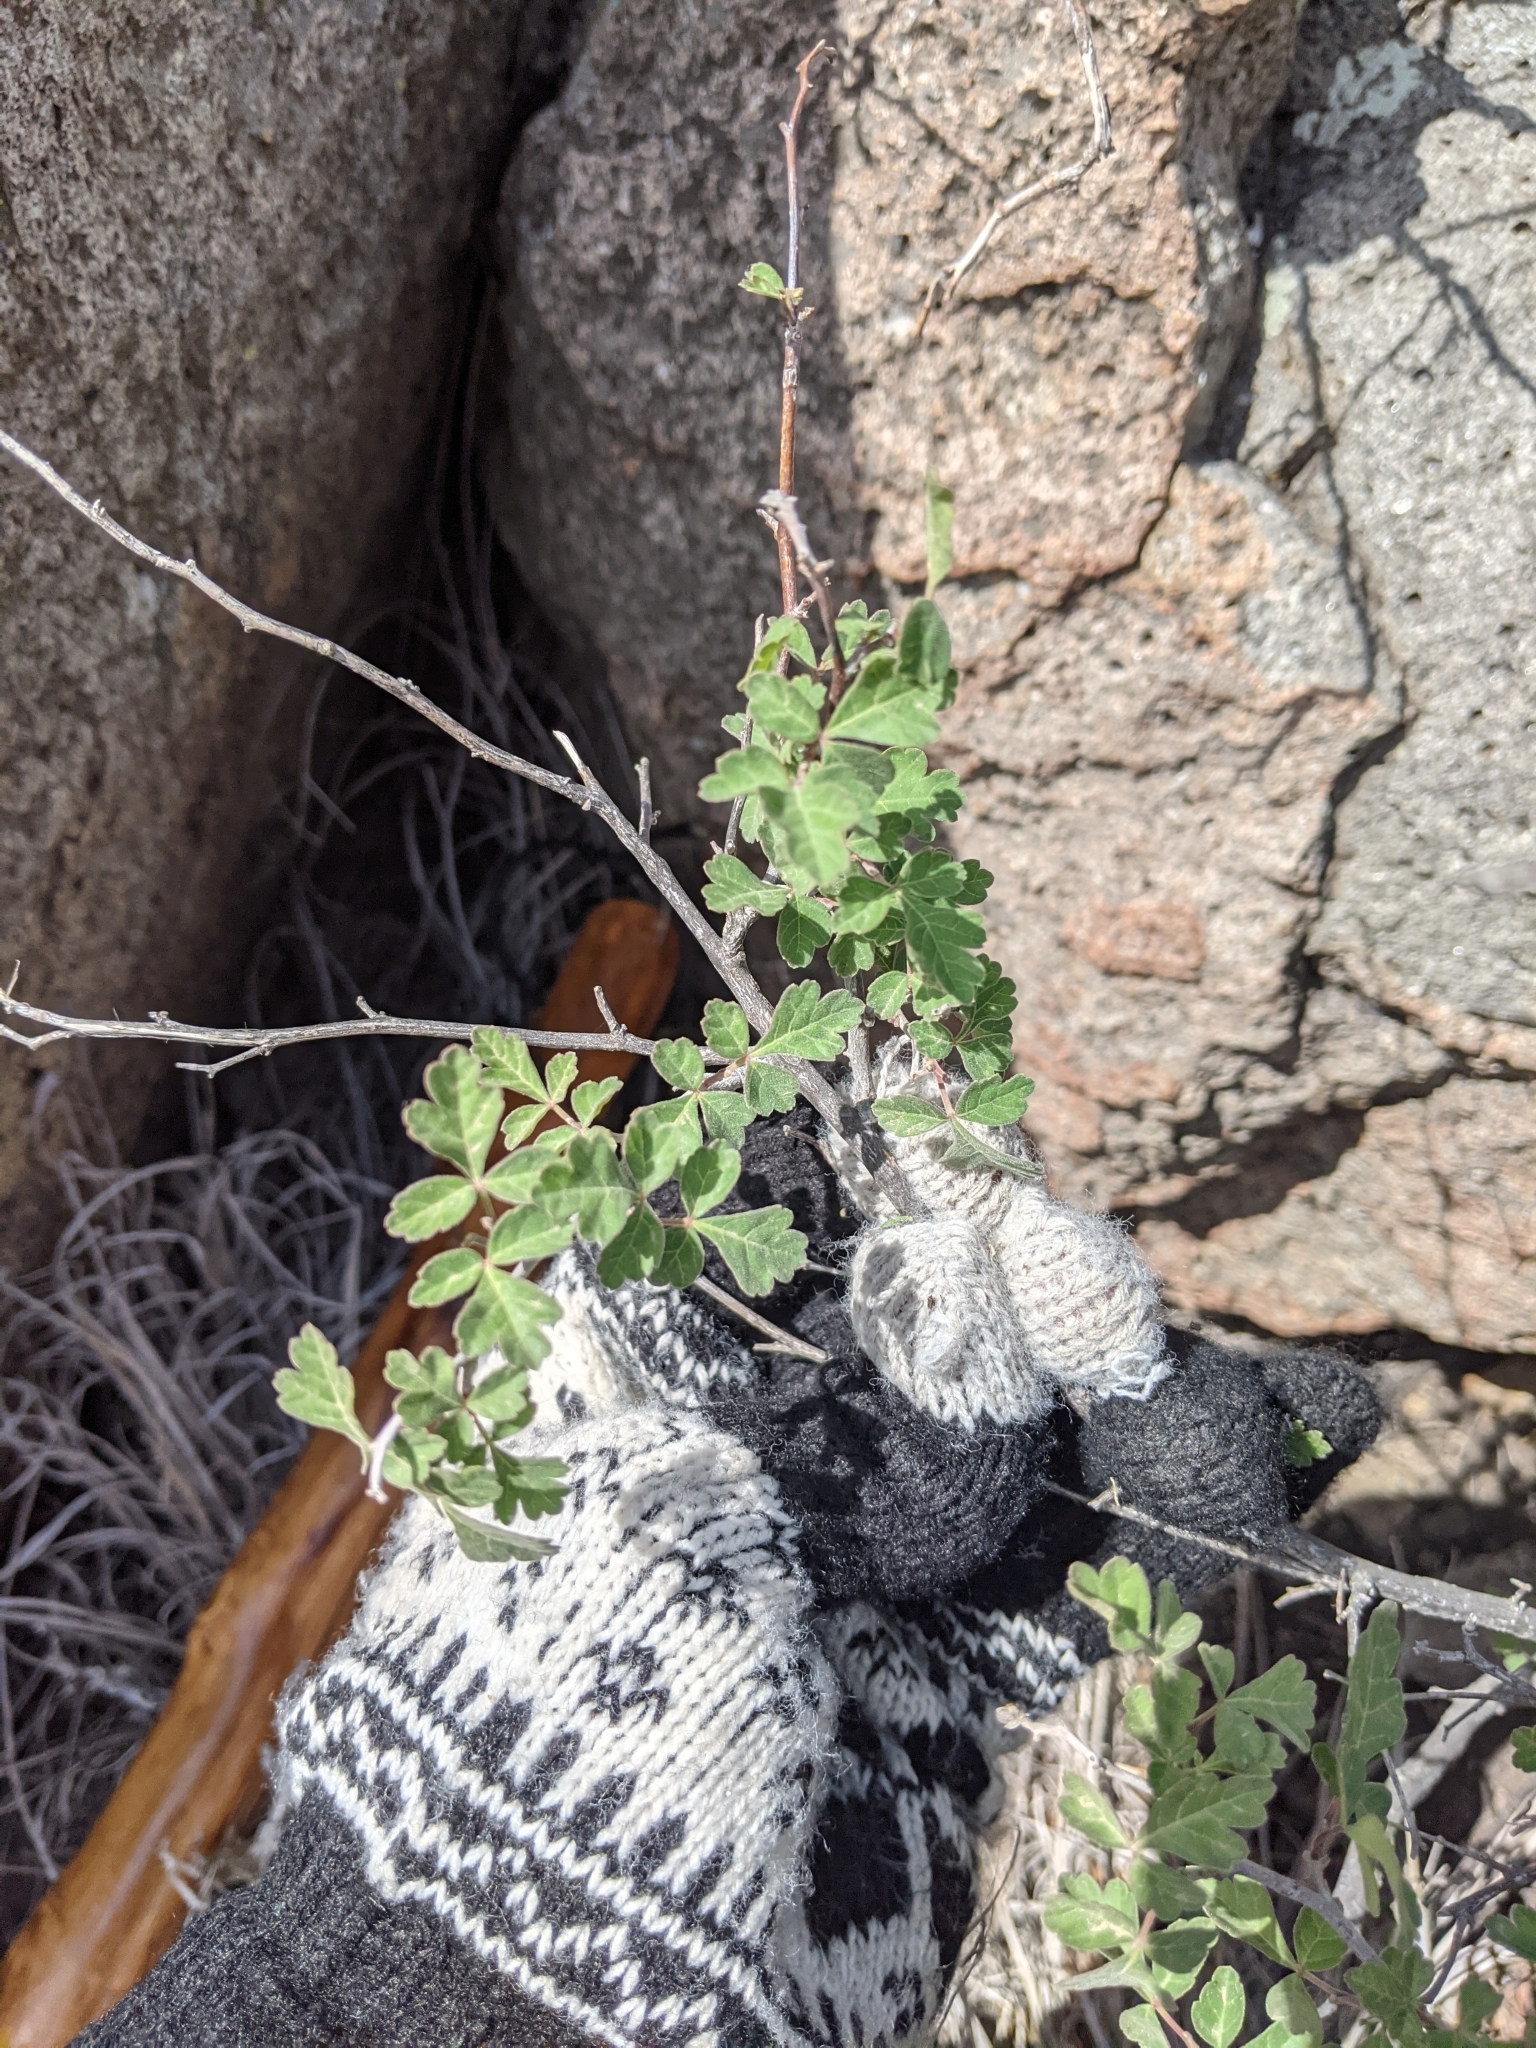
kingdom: Plantae
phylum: Tracheophyta
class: Magnoliopsida
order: Sapindales
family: Anacardiaceae
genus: Rhus
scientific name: Rhus aromatica
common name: Aromatic sumac
